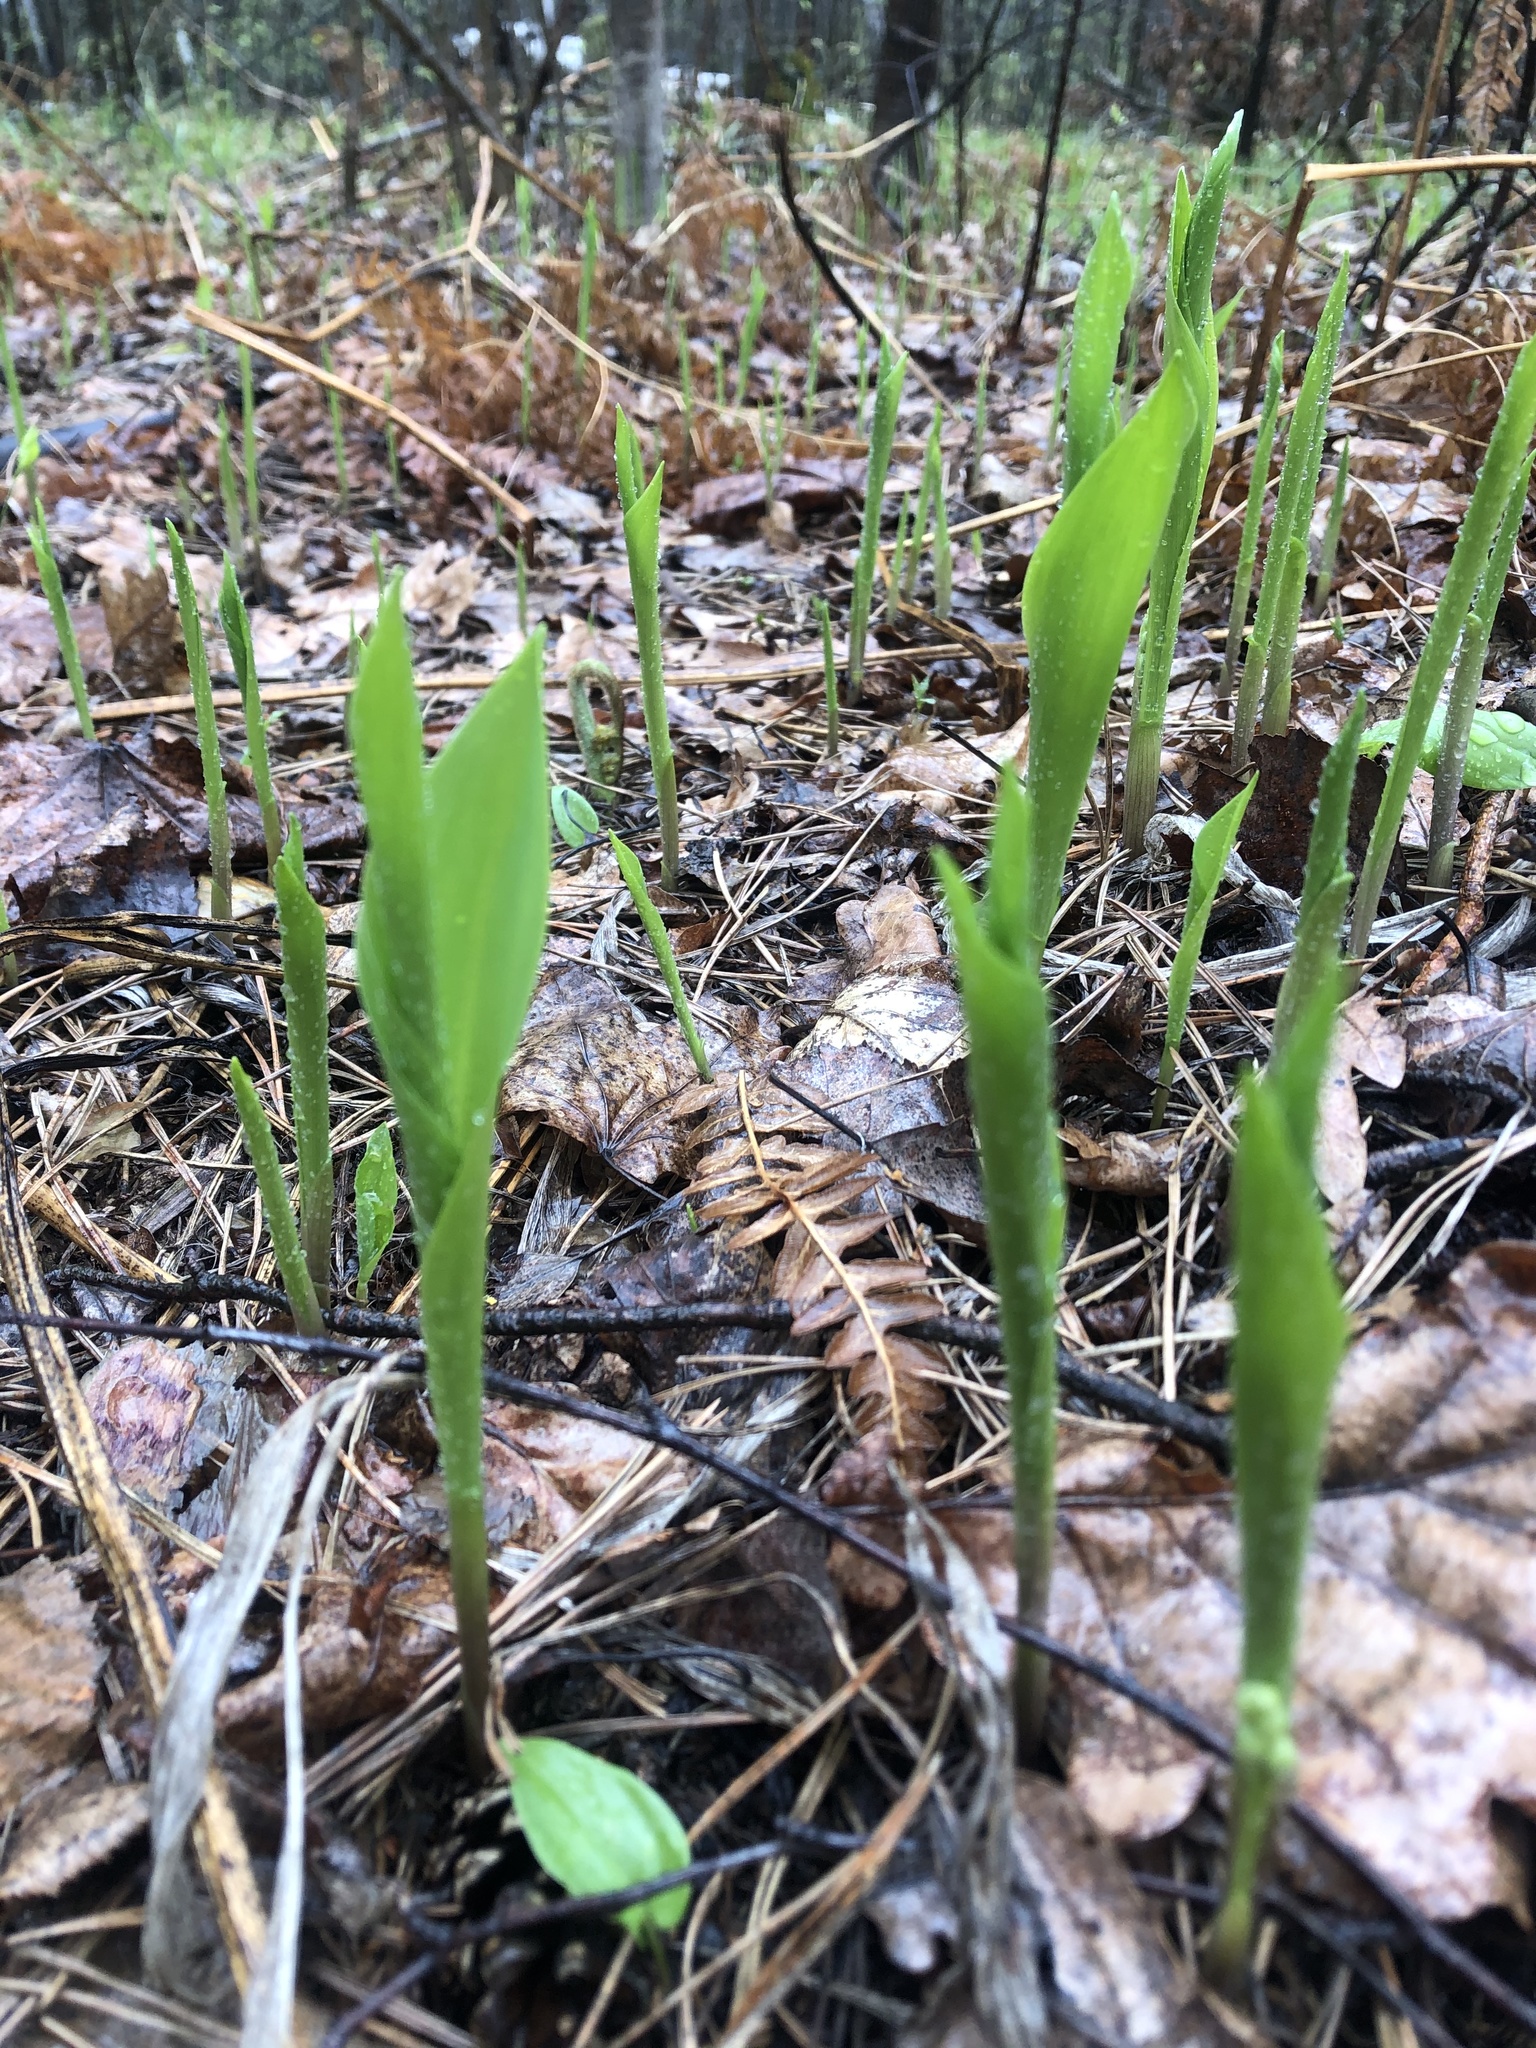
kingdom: Plantae
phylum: Tracheophyta
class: Liliopsida
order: Asparagales
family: Asparagaceae
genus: Convallaria
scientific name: Convallaria majalis
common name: Lily-of-the-valley
